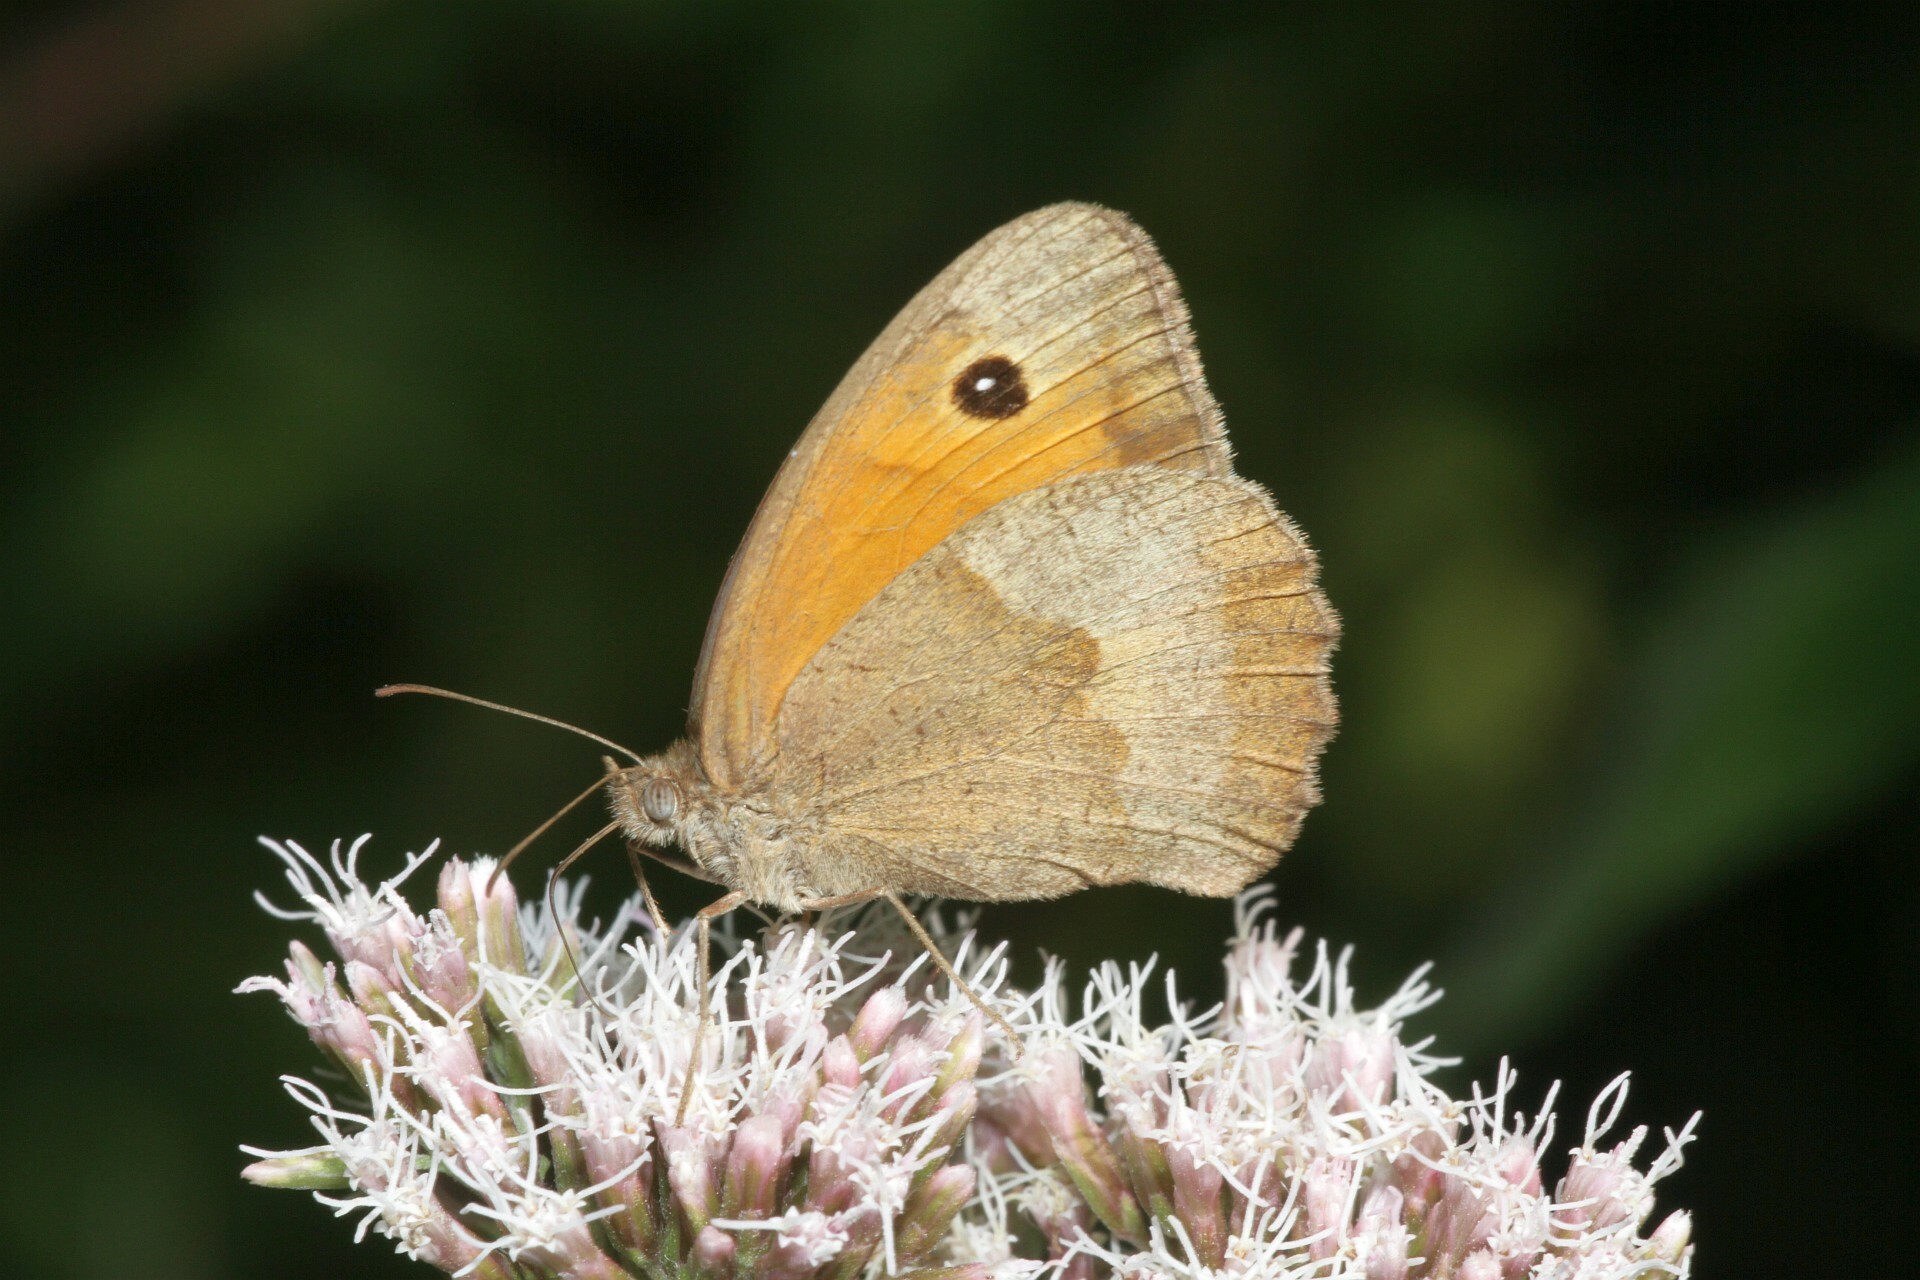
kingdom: Animalia
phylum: Arthropoda
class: Insecta
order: Lepidoptera
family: Nymphalidae
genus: Maniola
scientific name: Maniola jurtina
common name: Meadow brown
